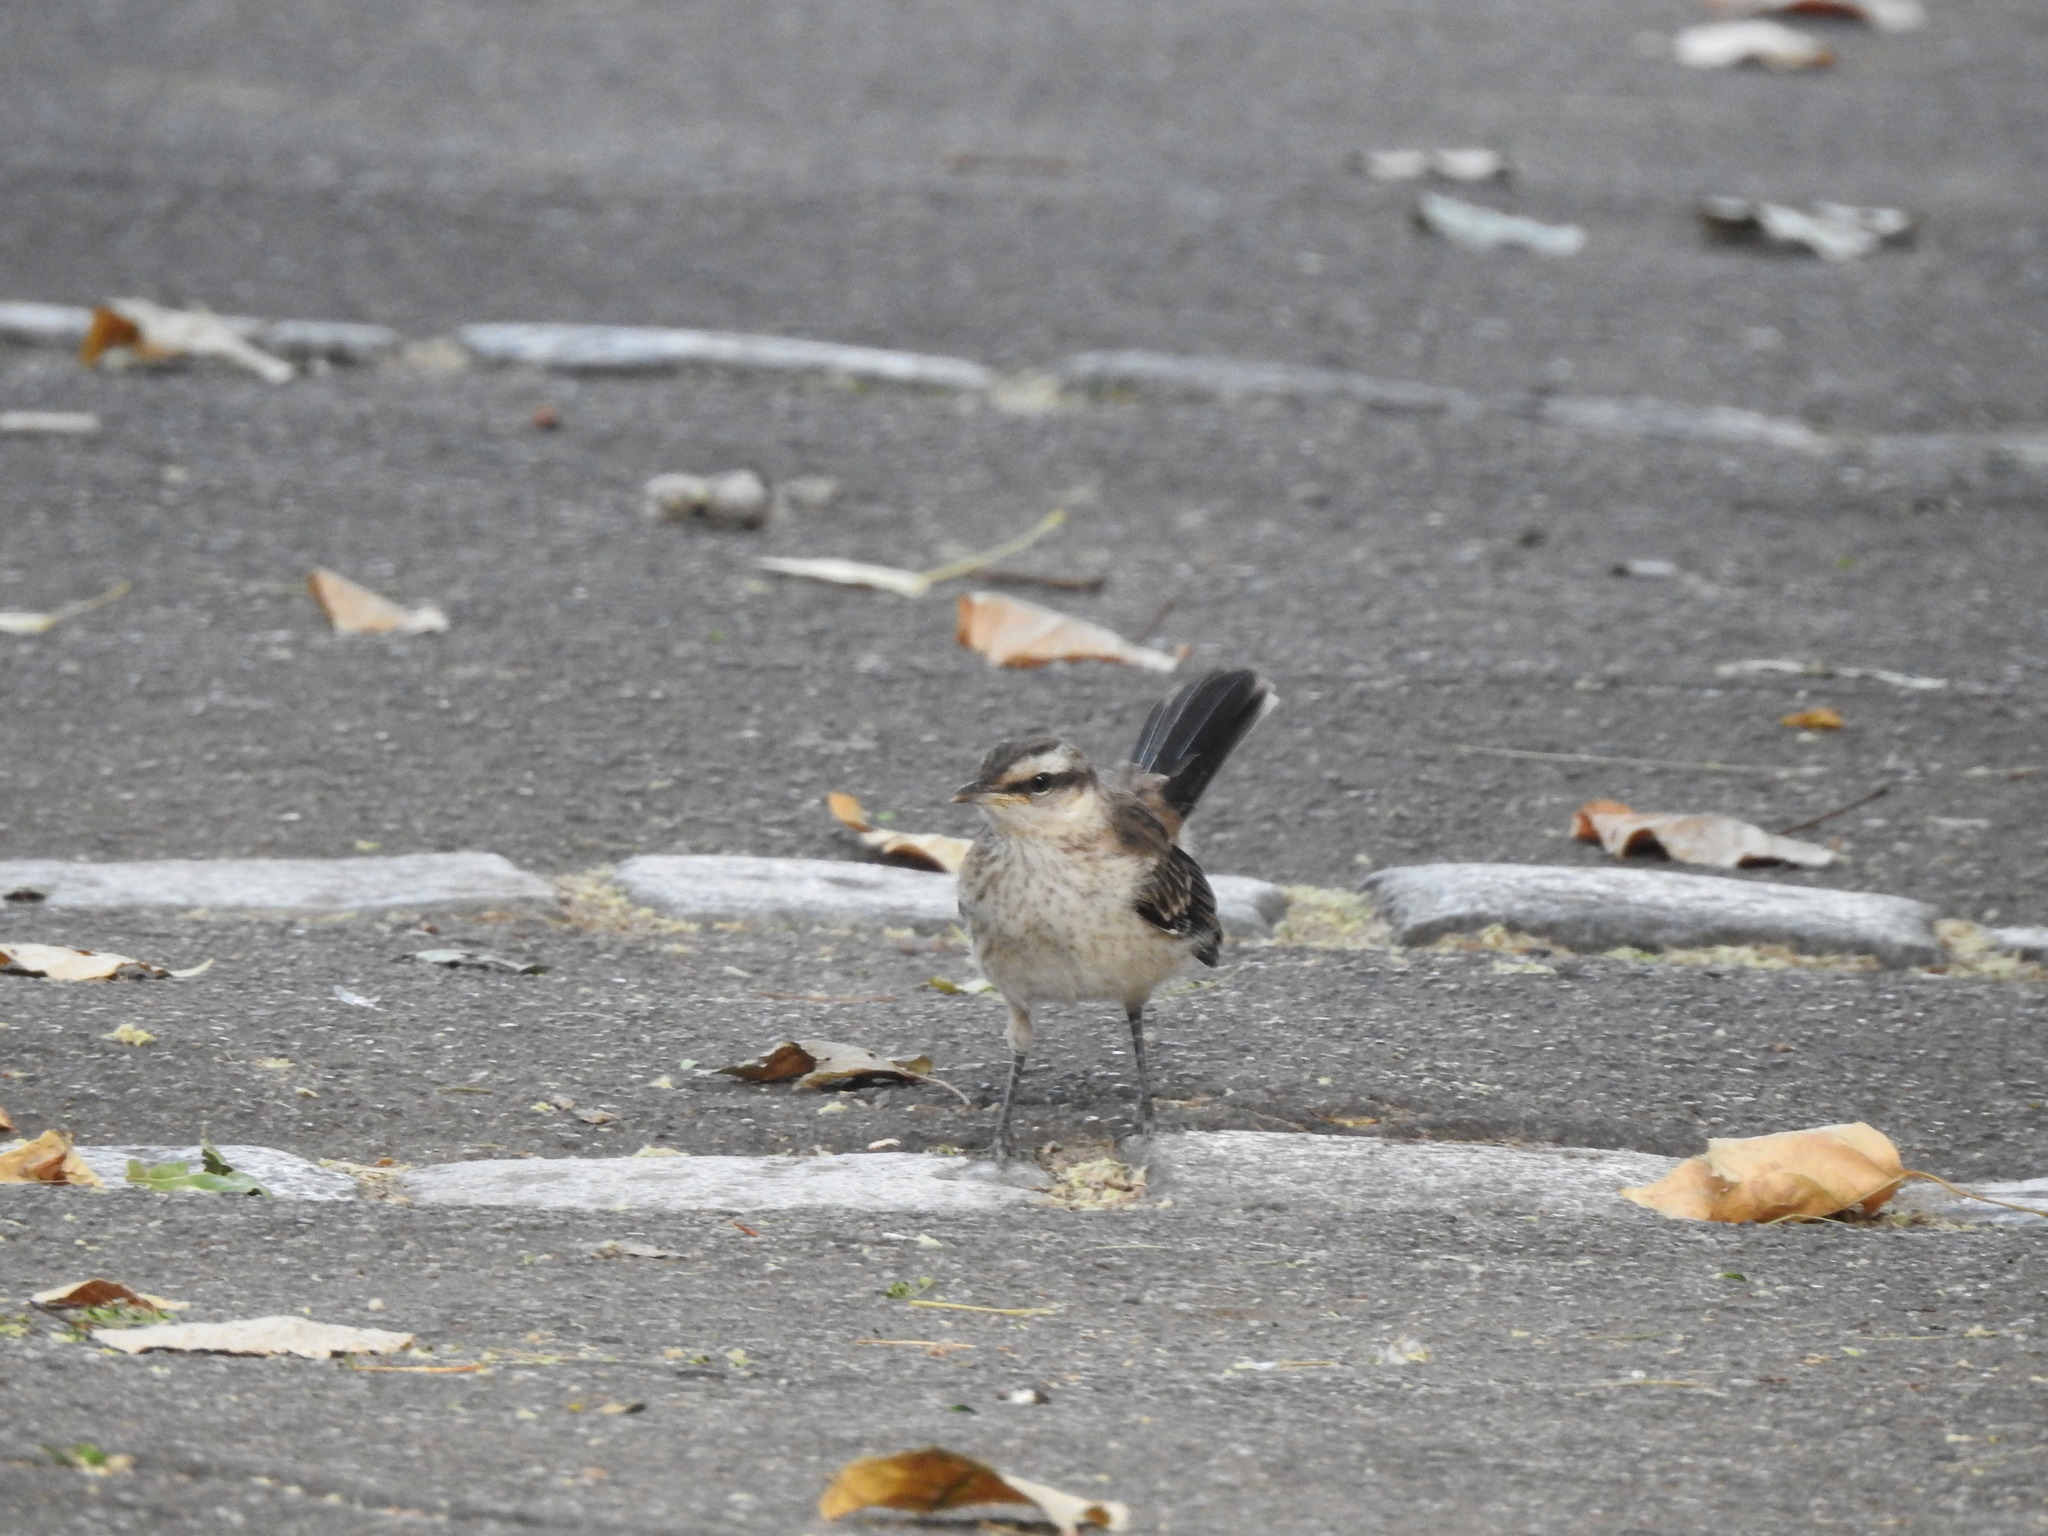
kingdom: Animalia
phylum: Chordata
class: Aves
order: Passeriformes
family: Mimidae
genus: Mimus
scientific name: Mimus saturninus
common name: Chalk-browed mockingbird
